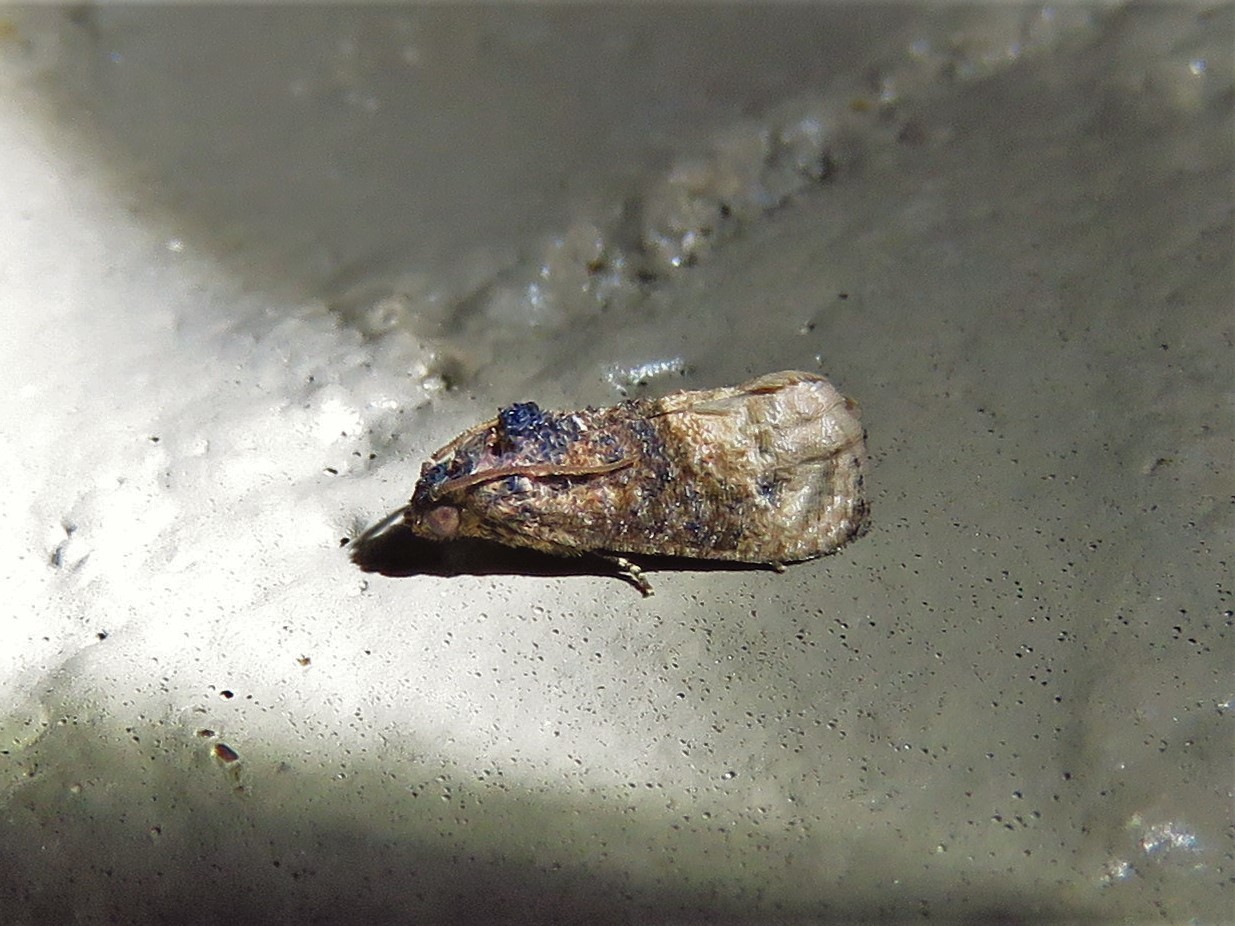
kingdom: Animalia
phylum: Arthropoda
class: Insecta
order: Lepidoptera
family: Tortricidae
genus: Ecdytolopha
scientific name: Ecdytolopha mana
